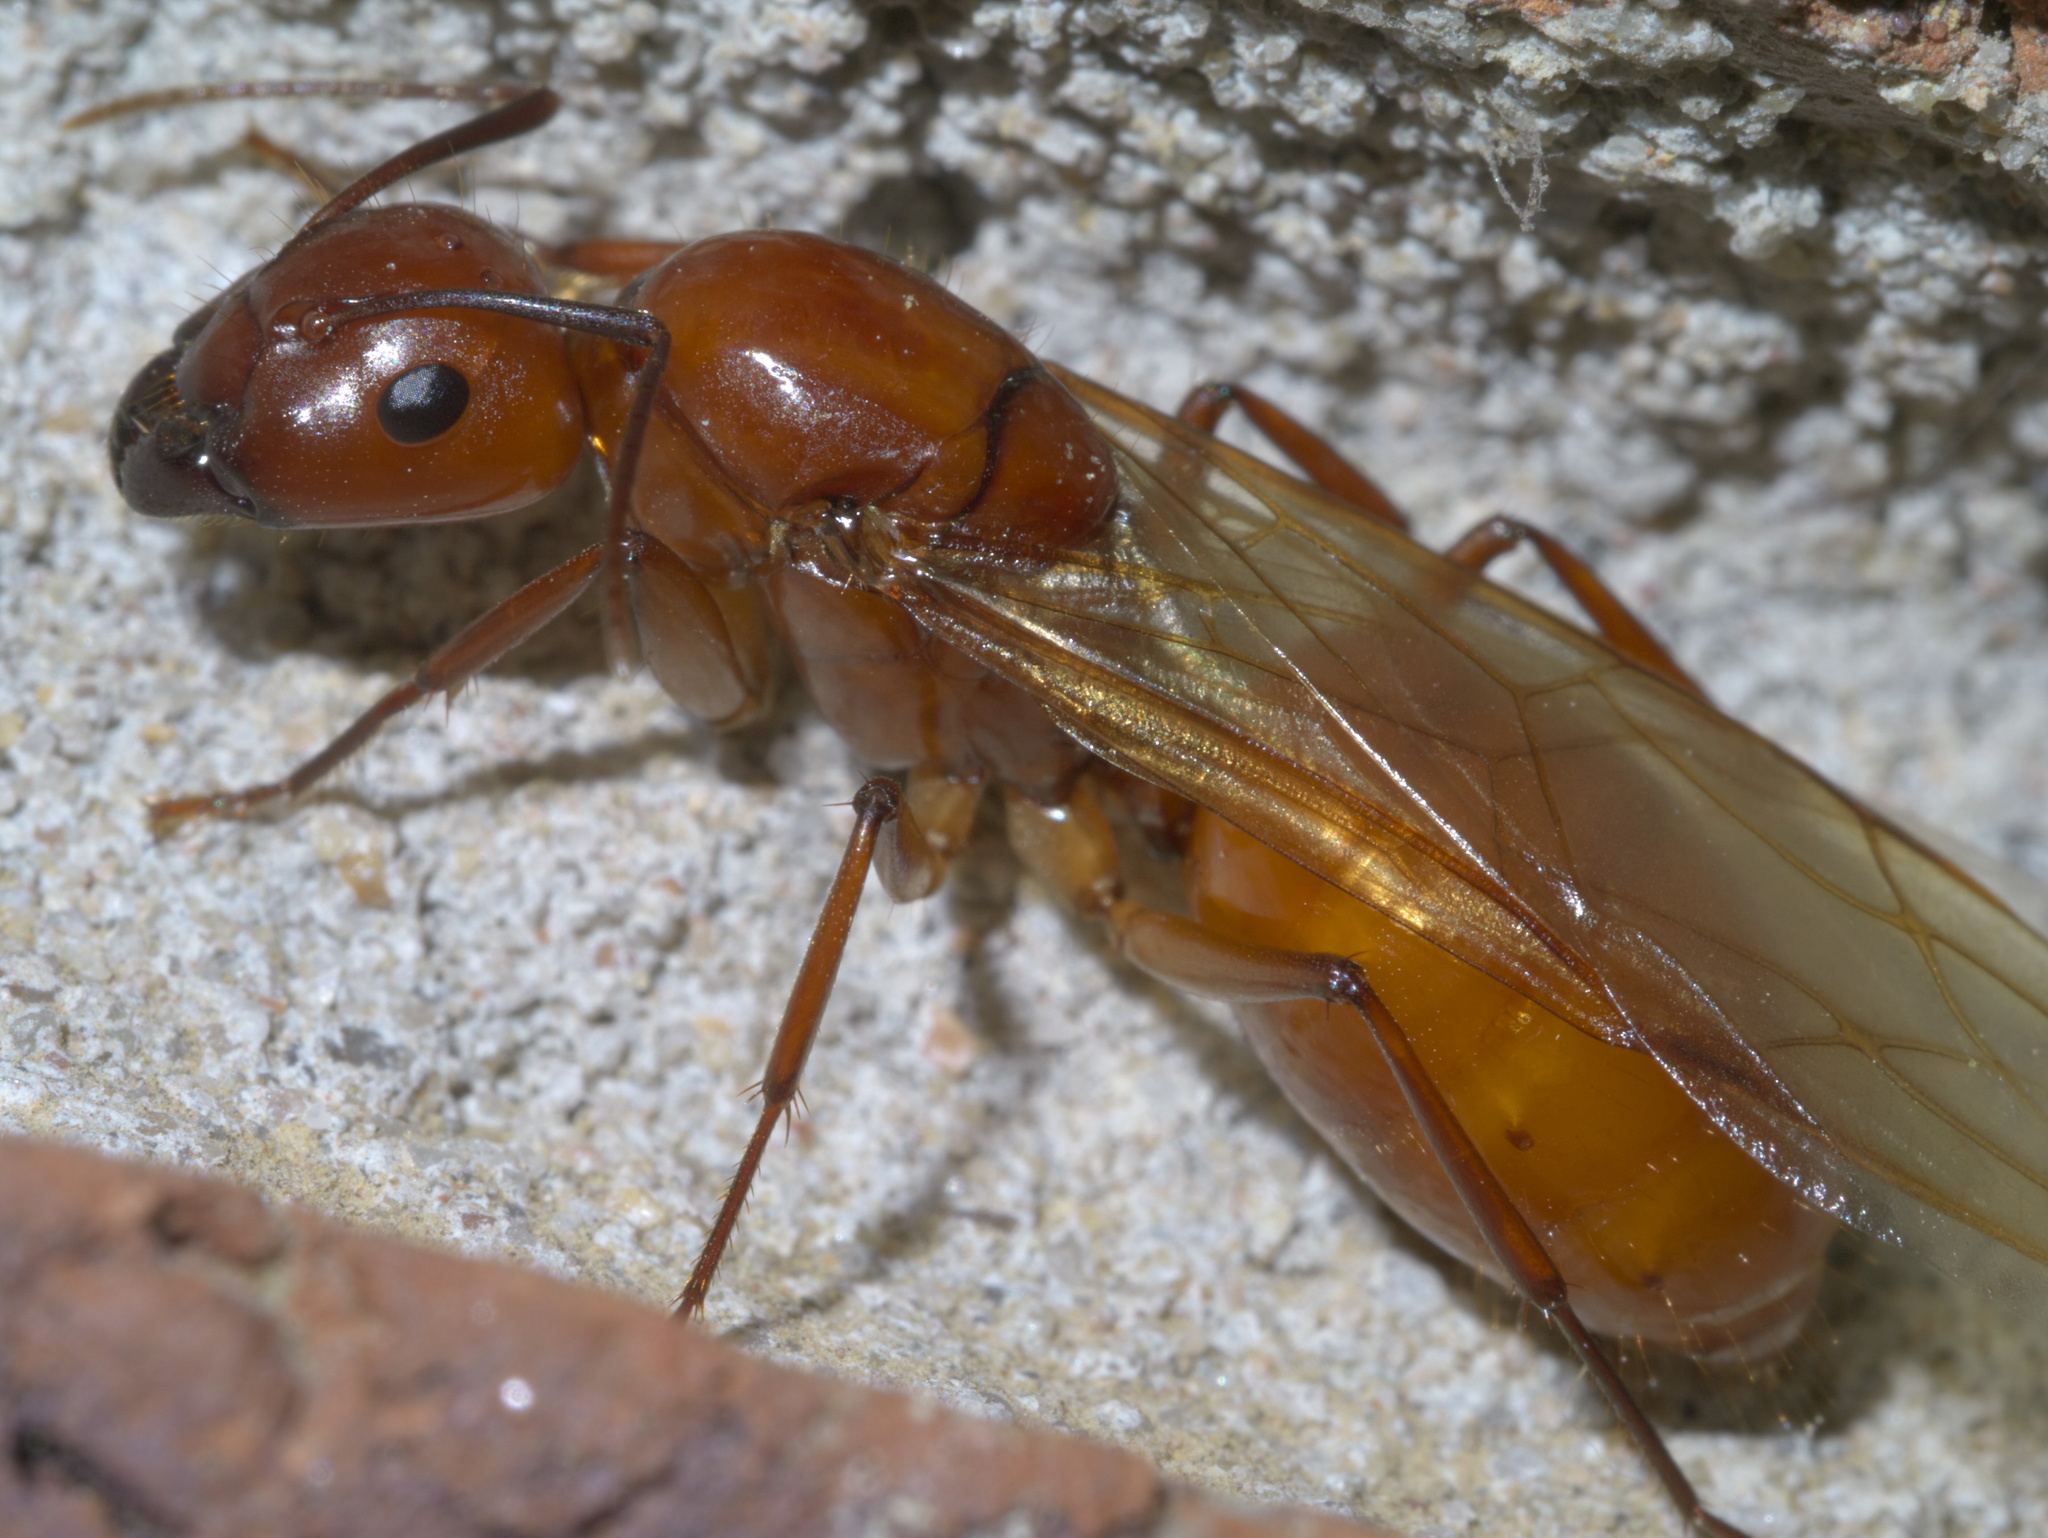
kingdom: Animalia
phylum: Arthropoda
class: Insecta
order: Hymenoptera
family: Formicidae
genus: Camponotus
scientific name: Camponotus castaneus
